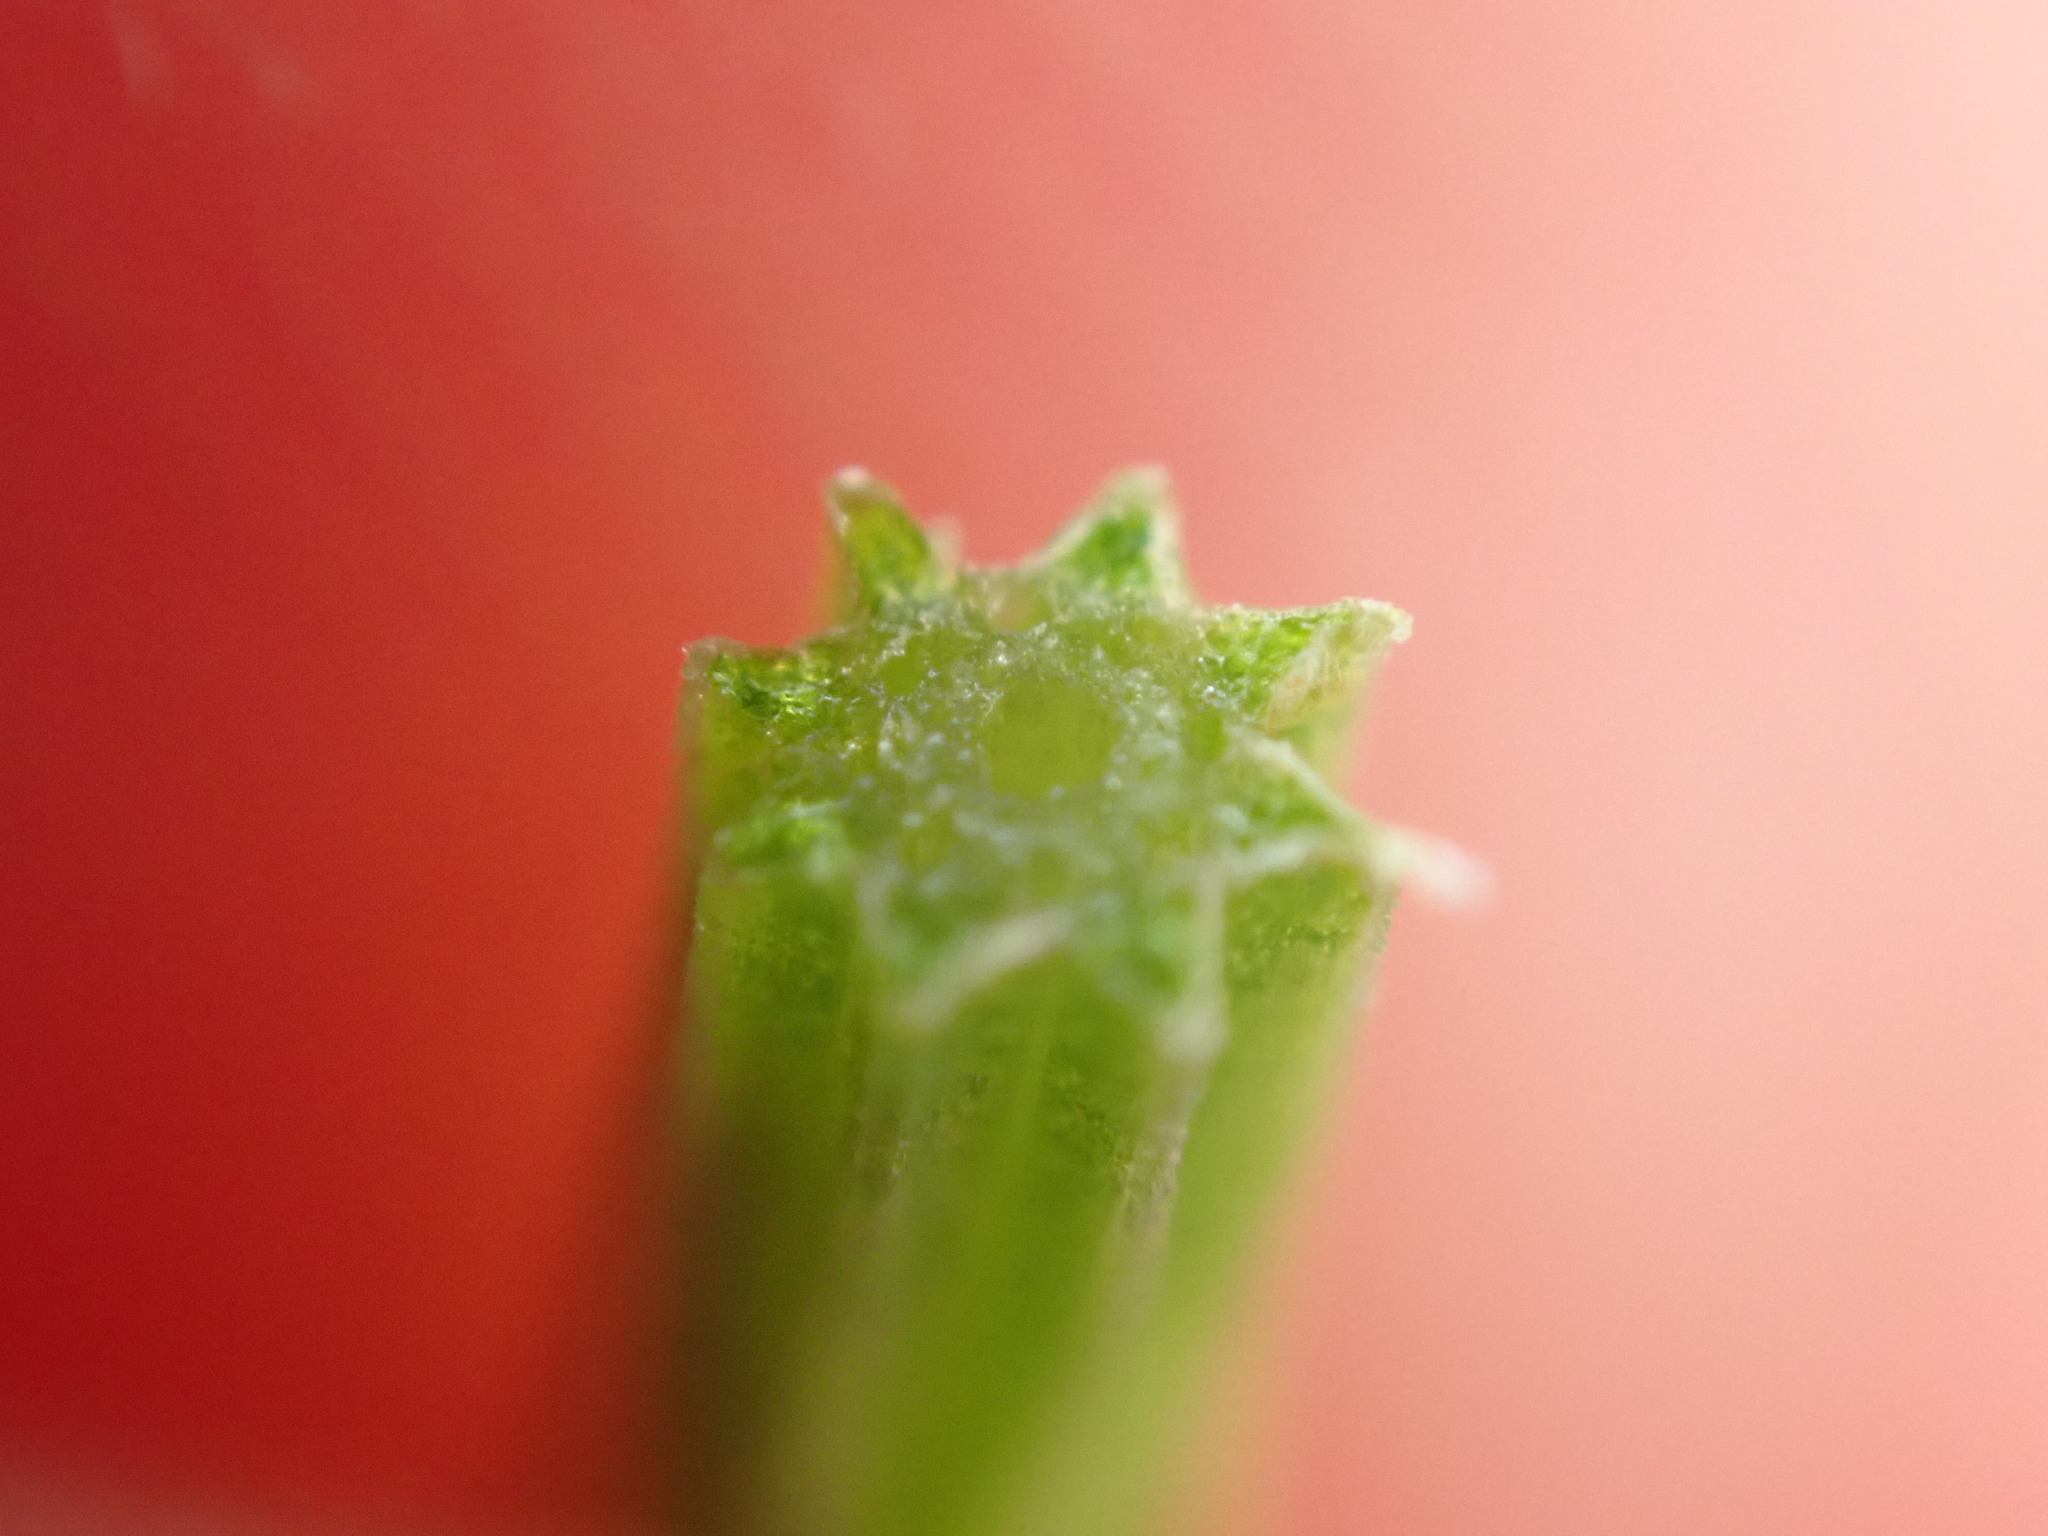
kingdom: Plantae
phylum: Tracheophyta
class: Polypodiopsida
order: Equisetales
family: Equisetaceae
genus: Equisetum
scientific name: Equisetum arvense
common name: Field horsetail
